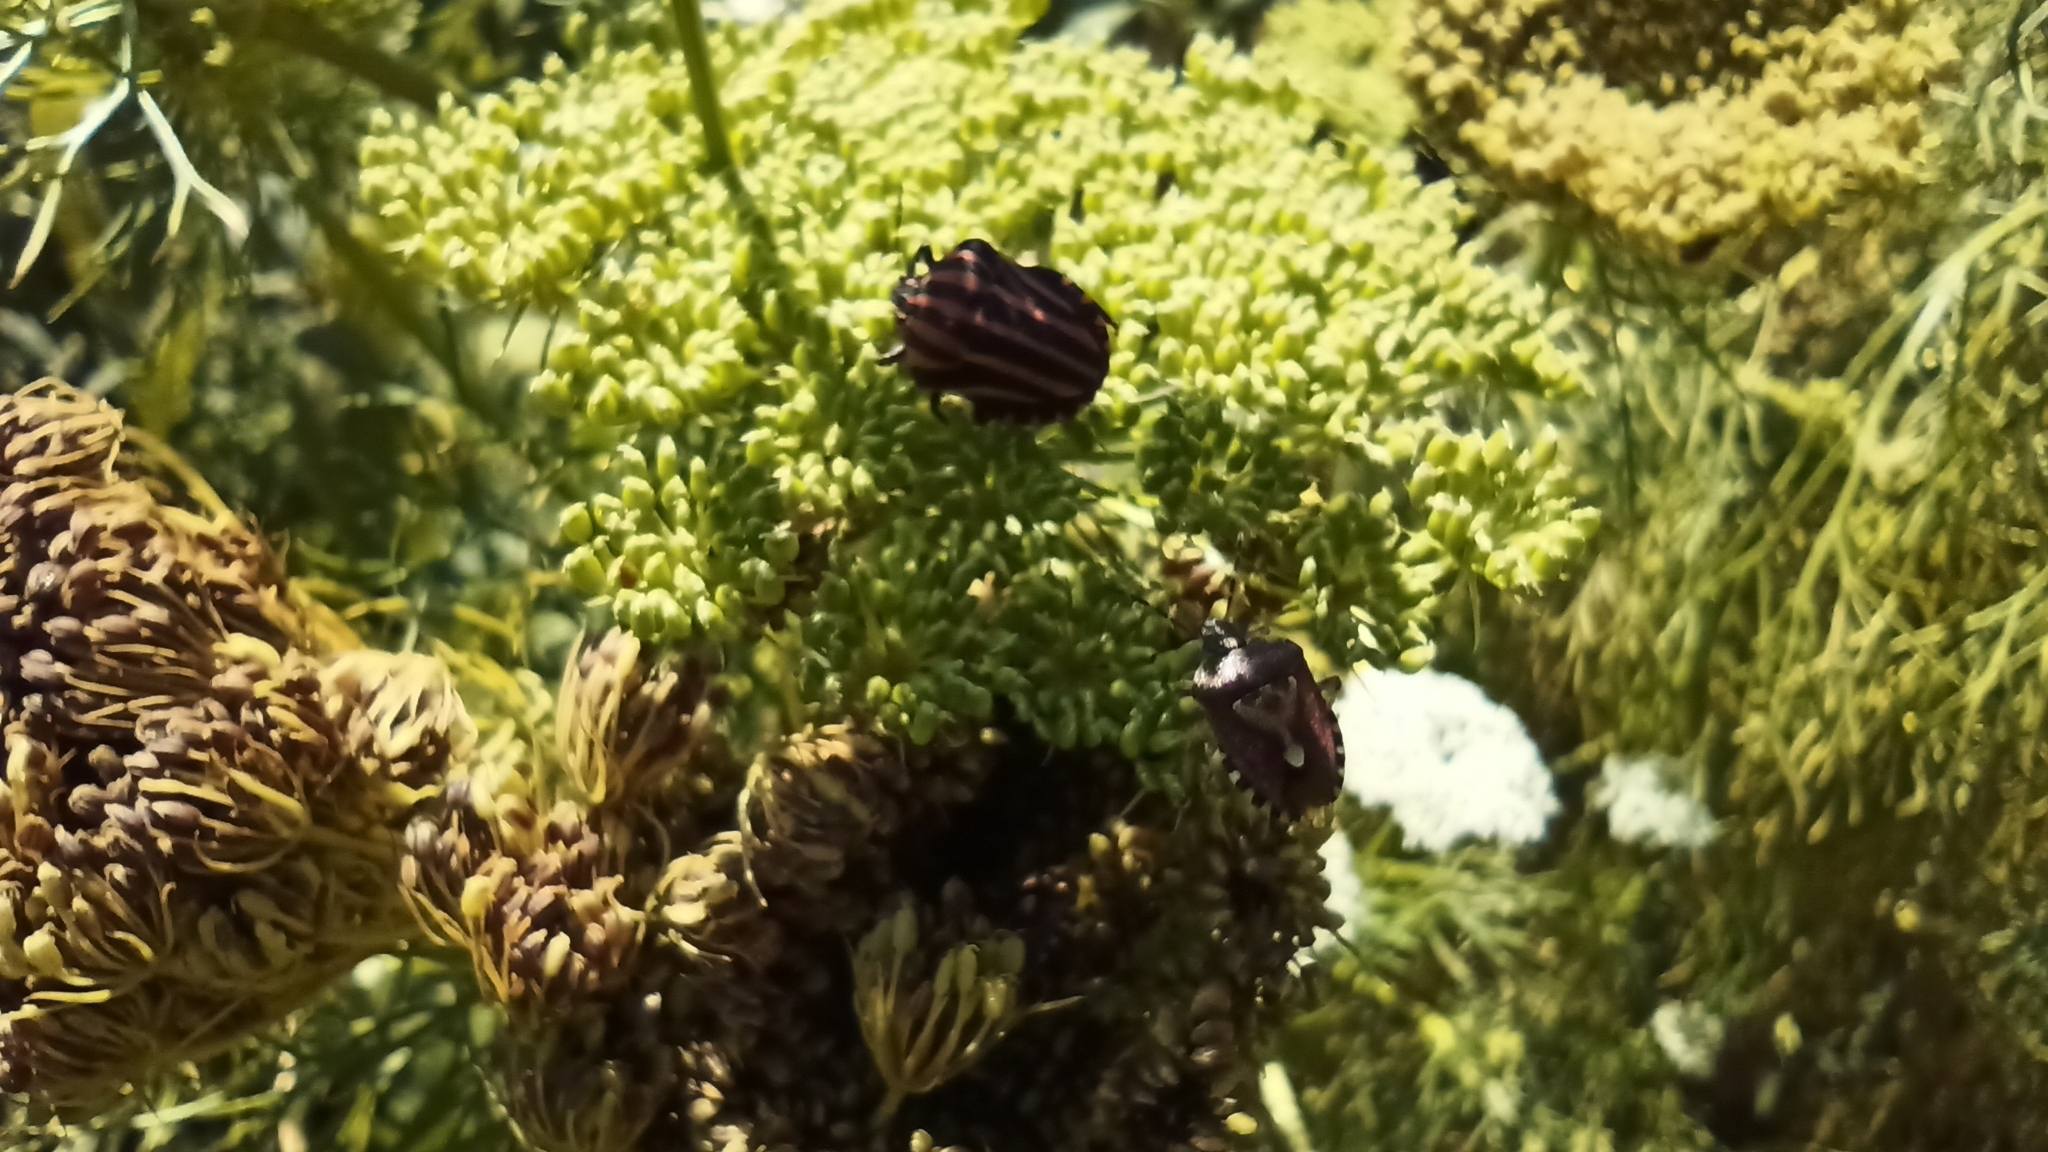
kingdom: Animalia
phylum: Arthropoda
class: Insecta
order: Hemiptera
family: Pentatomidae
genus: Graphosoma
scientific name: Graphosoma rubrolineatum
